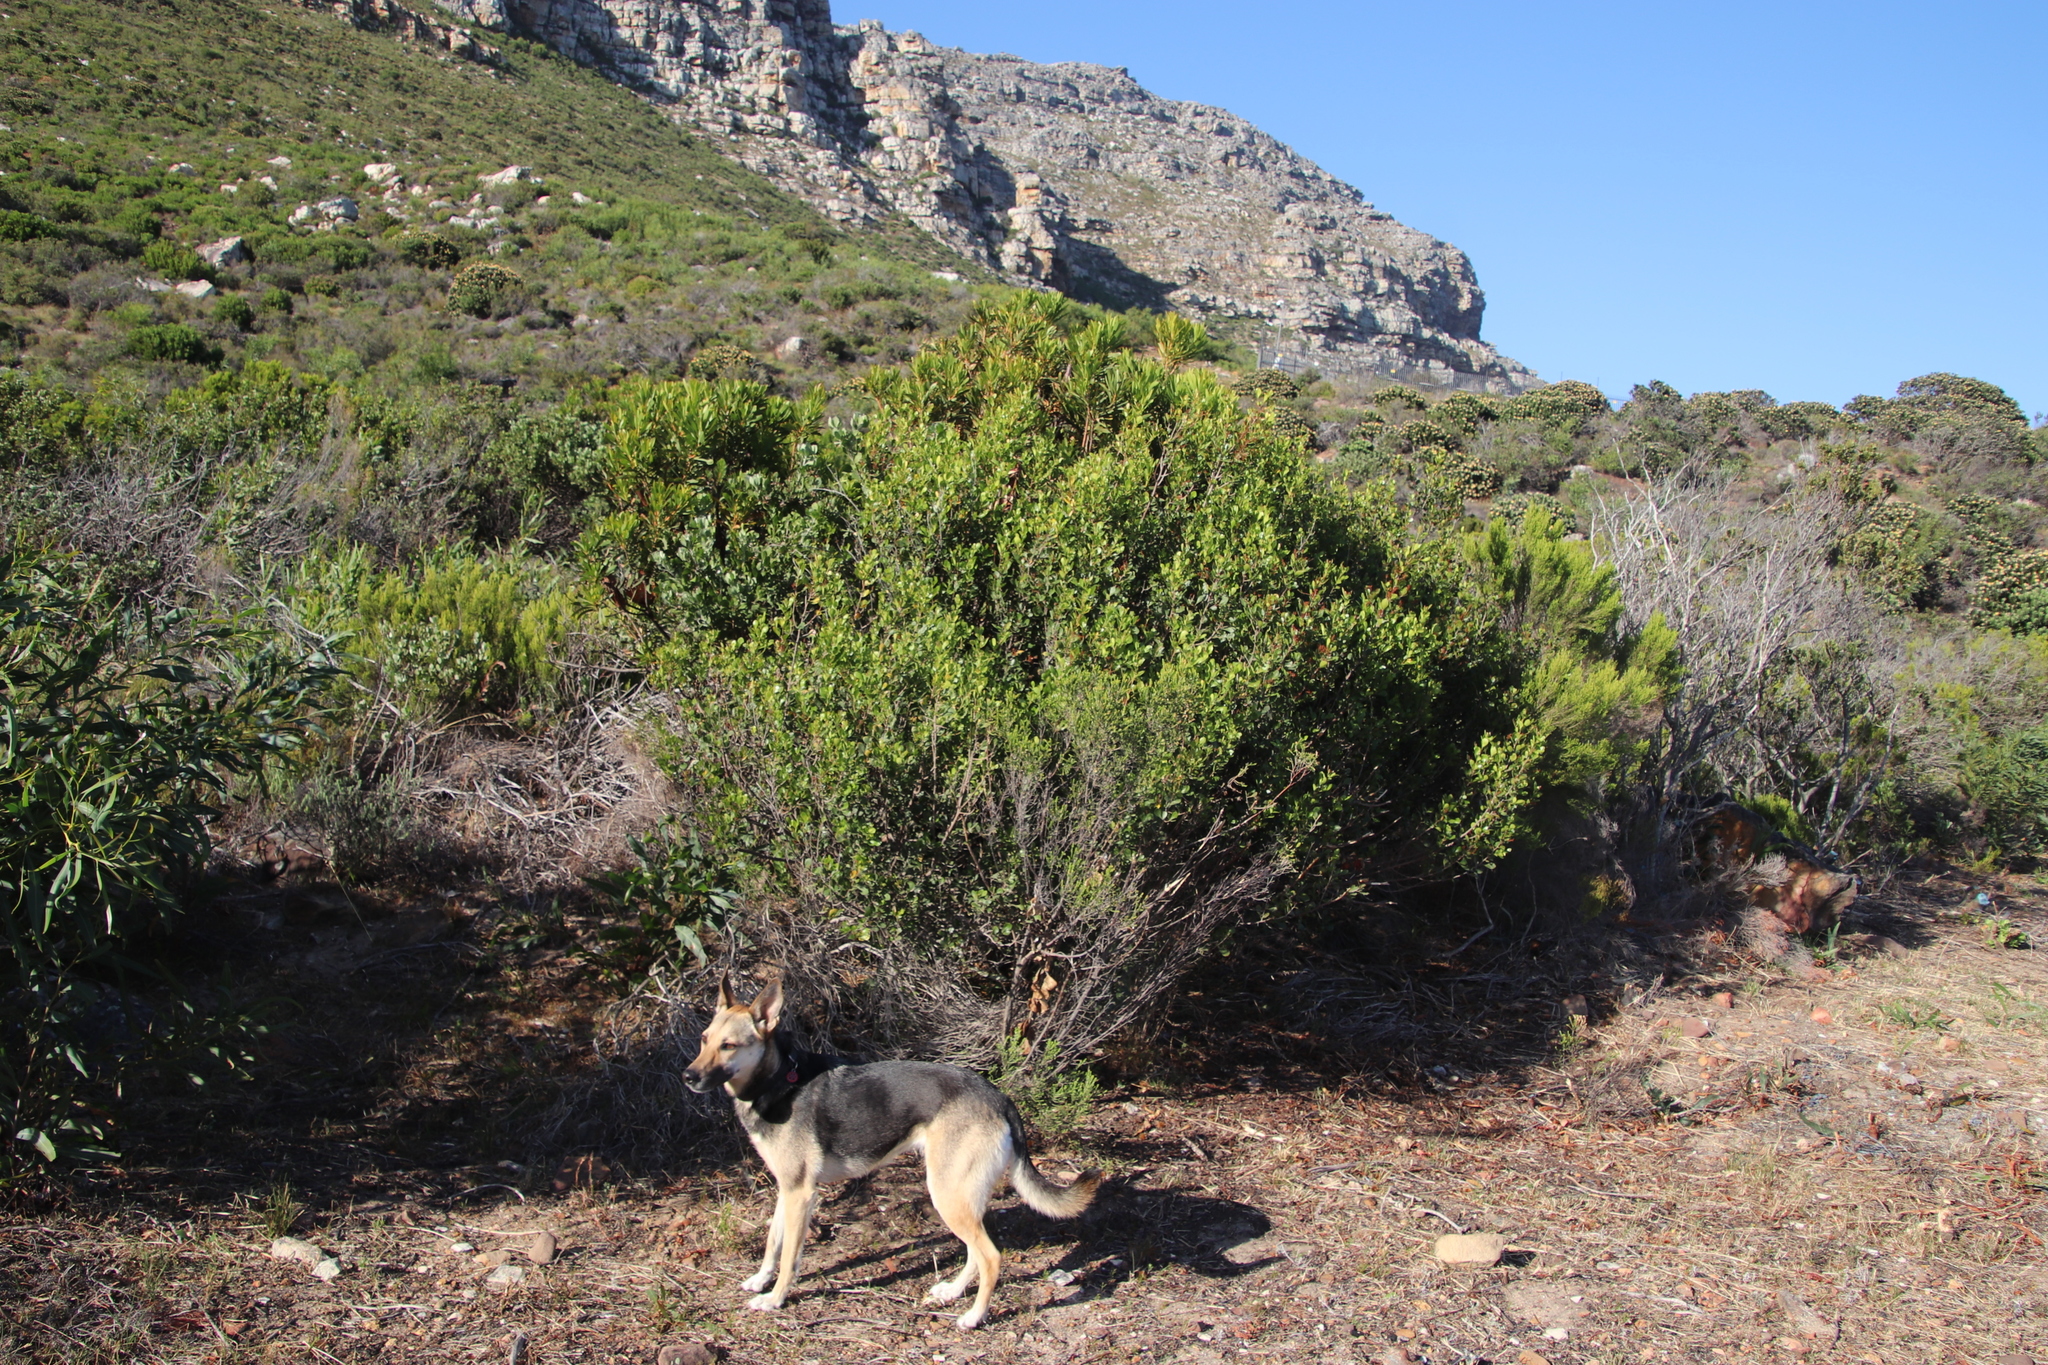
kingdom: Plantae
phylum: Tracheophyta
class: Magnoliopsida
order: Sapindales
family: Anacardiaceae
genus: Searsia
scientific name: Searsia lucida
